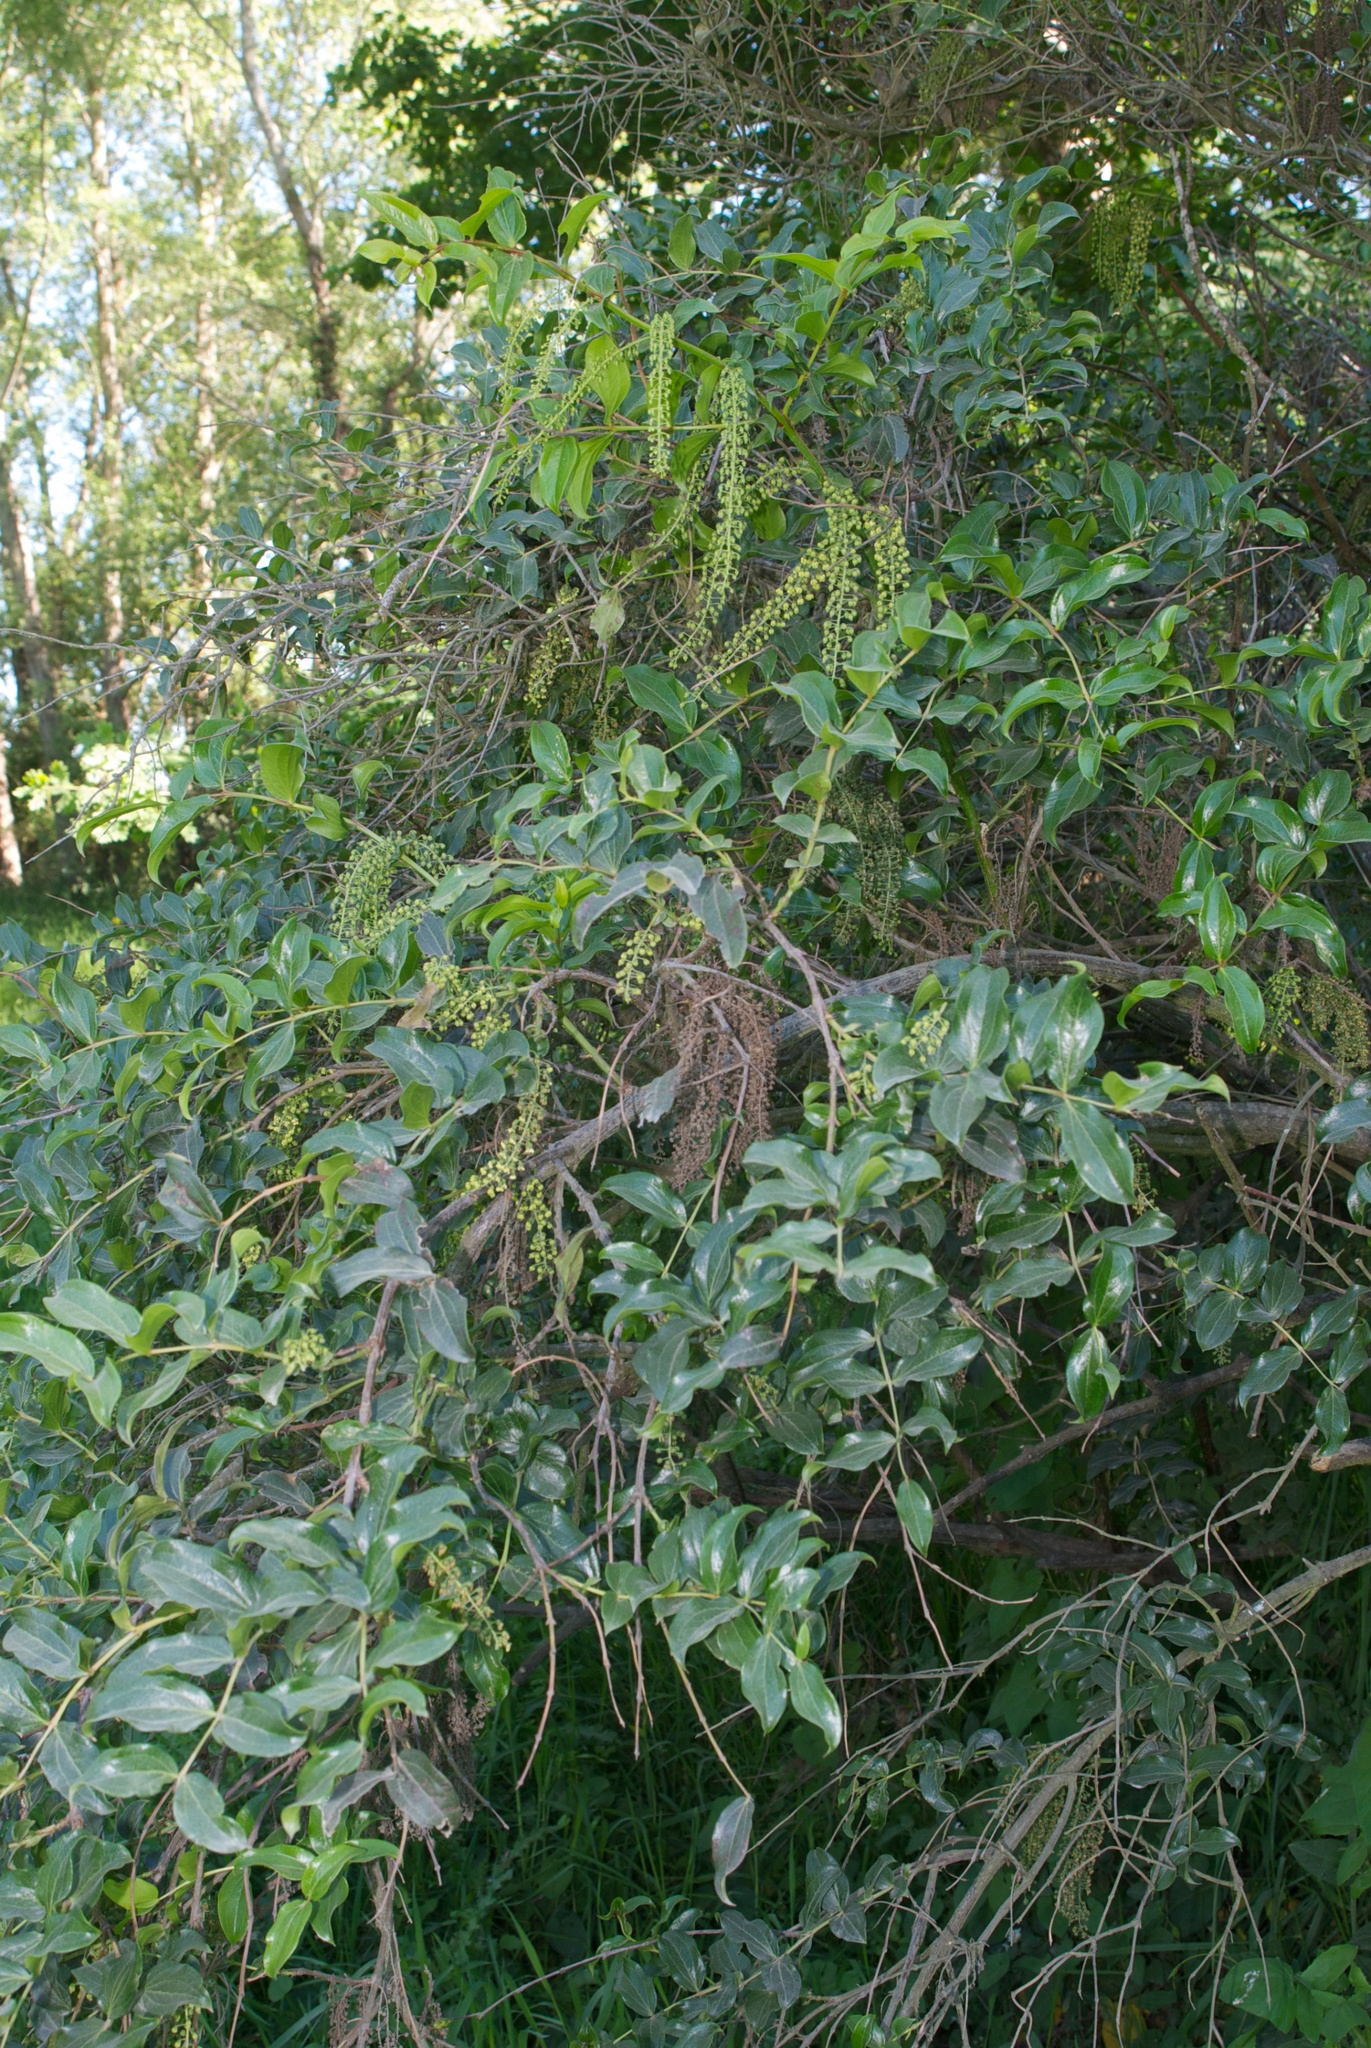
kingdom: Plantae
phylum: Tracheophyta
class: Magnoliopsida
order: Cucurbitales
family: Coriariaceae
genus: Coriaria
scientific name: Coriaria arborea
